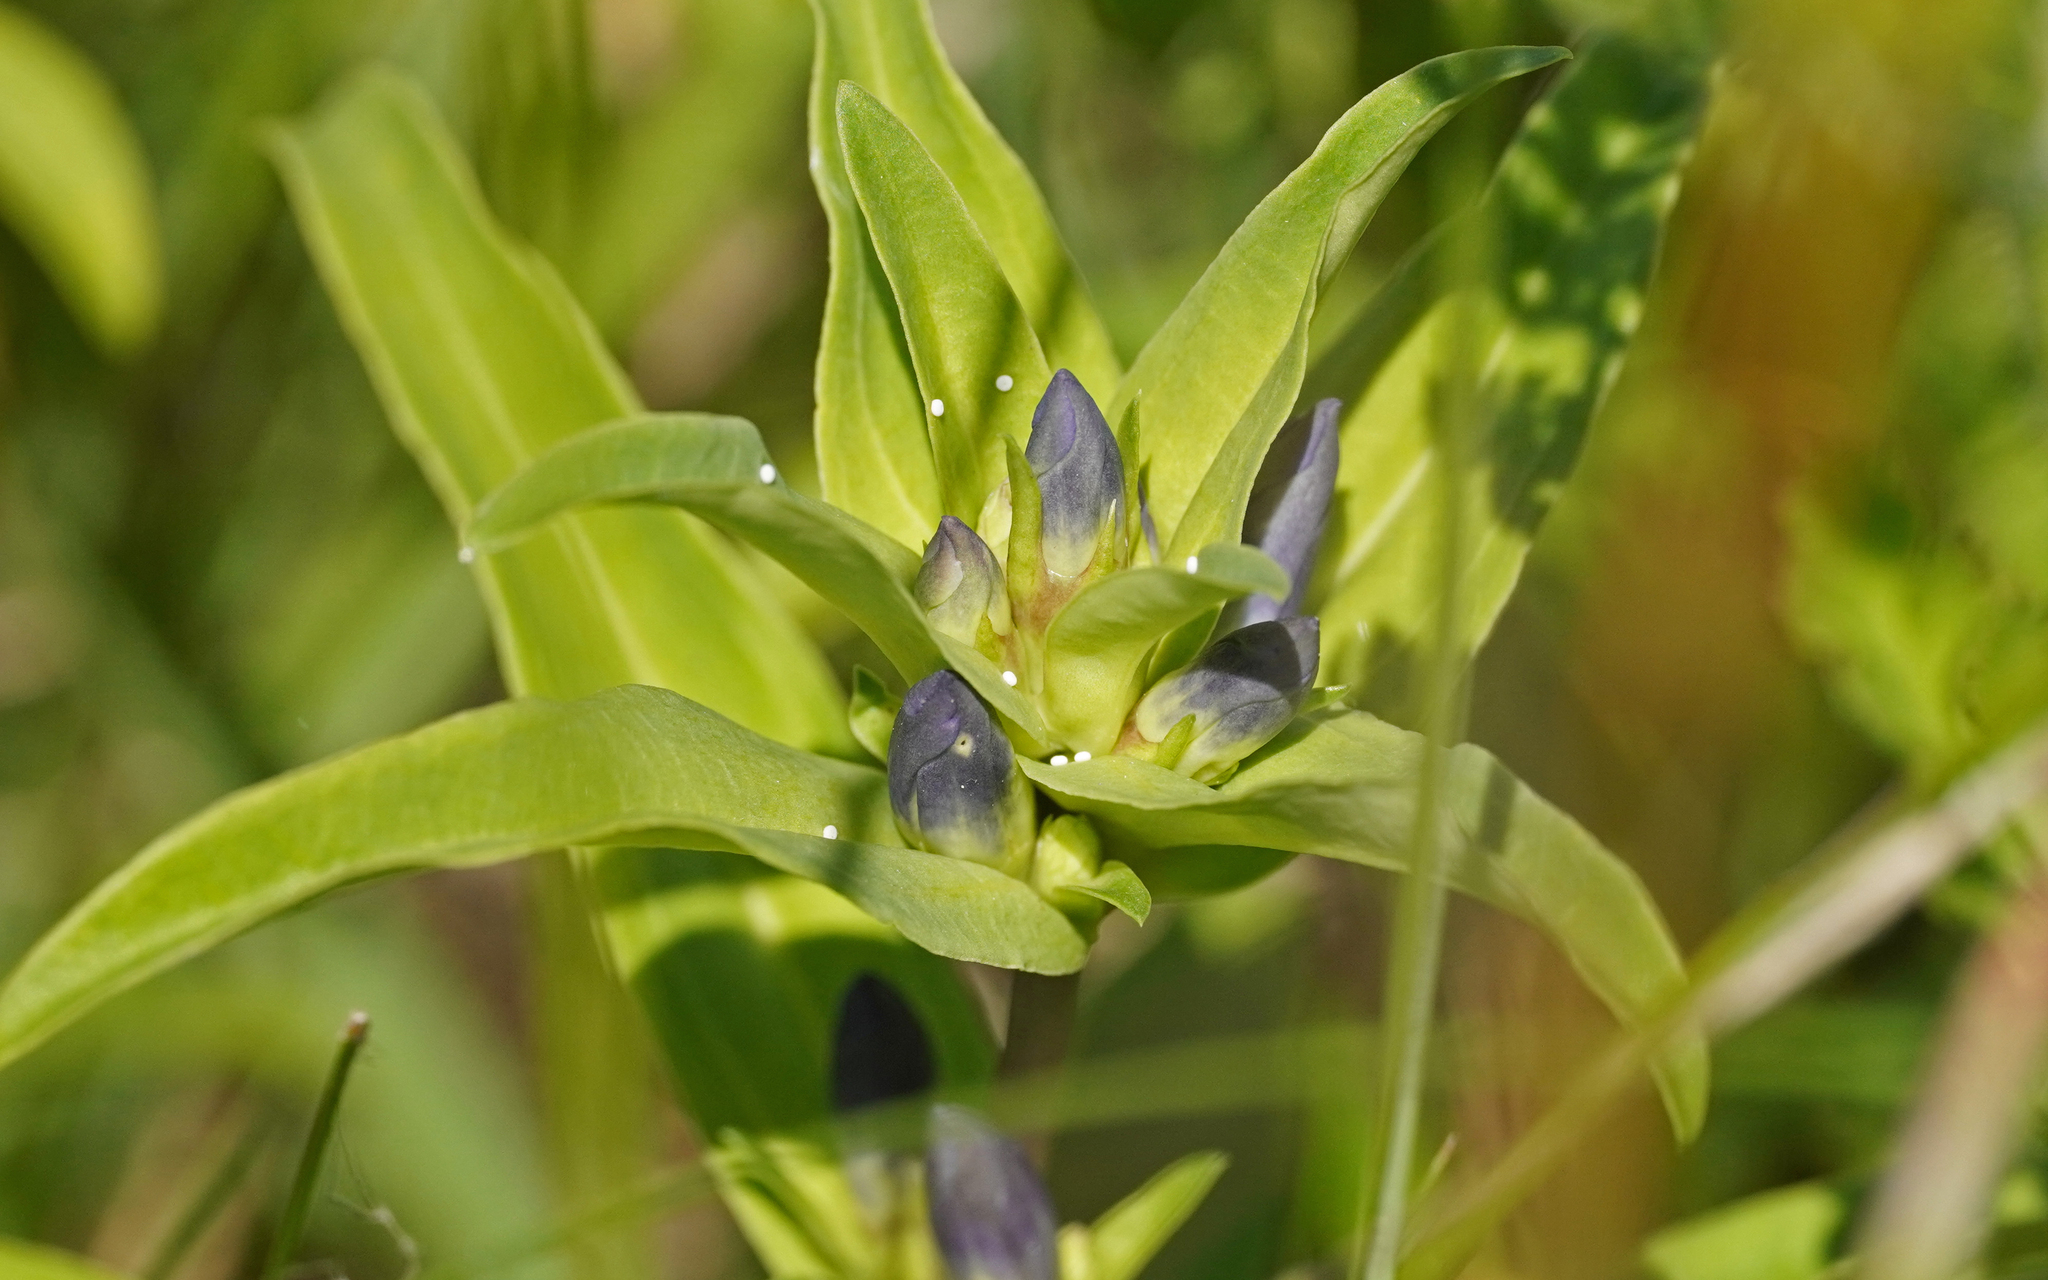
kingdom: Animalia
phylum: Arthropoda
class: Insecta
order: Lepidoptera
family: Lycaenidae
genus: Maculinea
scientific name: Maculinea alcon
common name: Alcon blue
